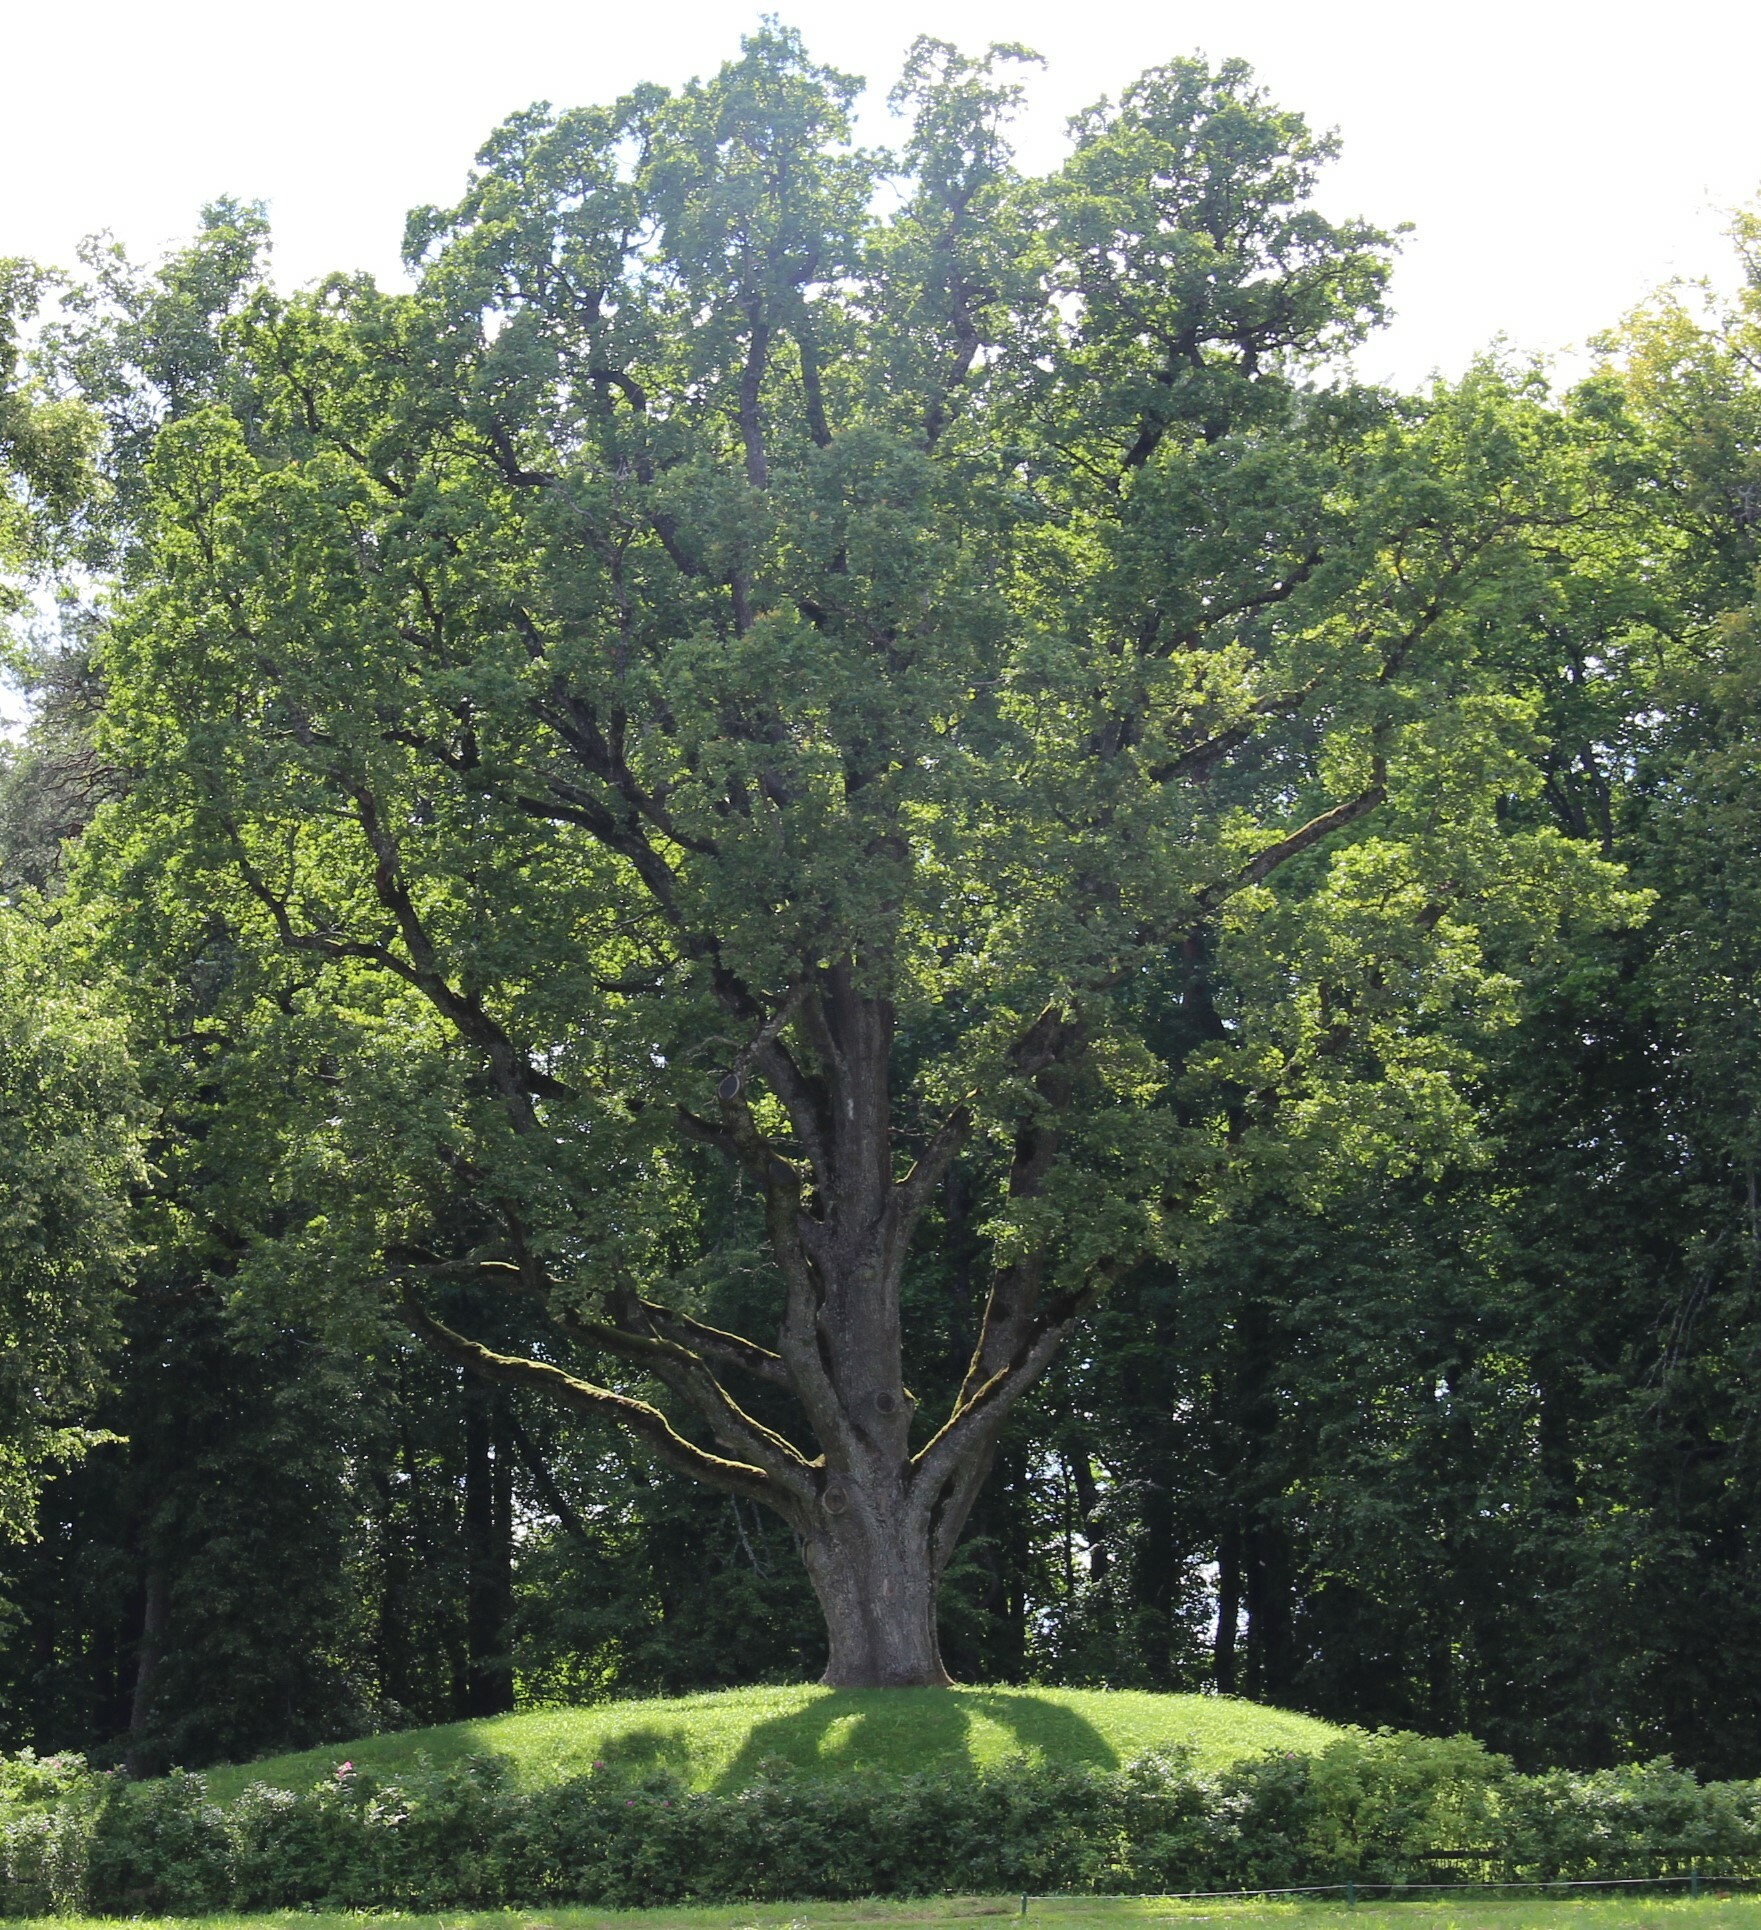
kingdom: Plantae
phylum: Tracheophyta
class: Magnoliopsida
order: Fagales
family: Fagaceae
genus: Quercus
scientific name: Quercus robur
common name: Pedunculate oak
